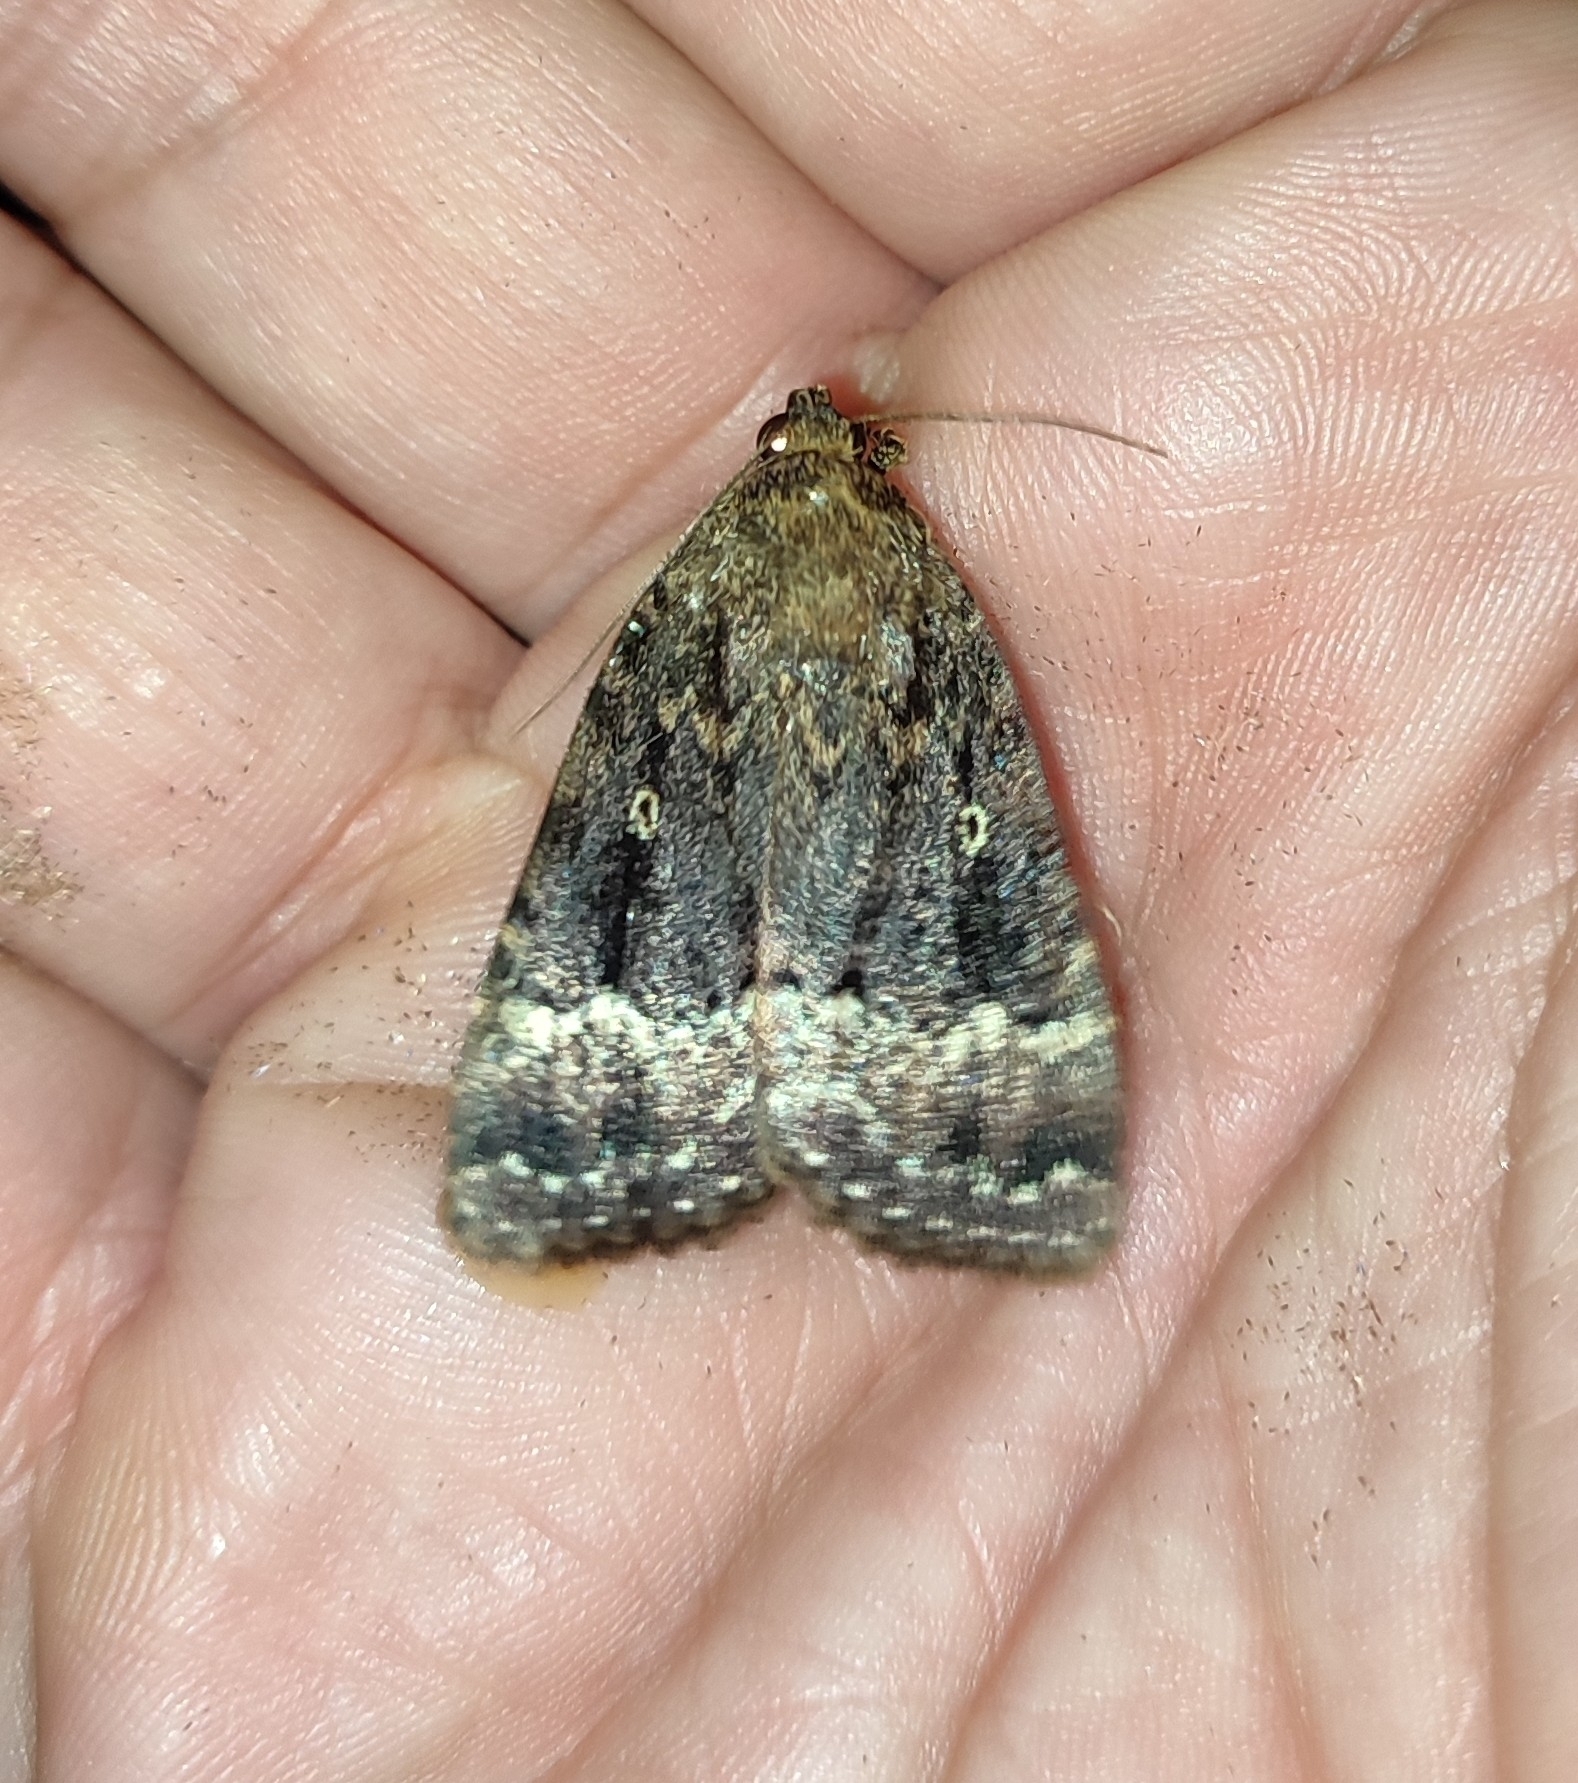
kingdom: Animalia
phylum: Arthropoda
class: Insecta
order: Lepidoptera
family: Noctuidae
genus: Amphipyra
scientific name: Amphipyra pyramidea
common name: Copper underwing
